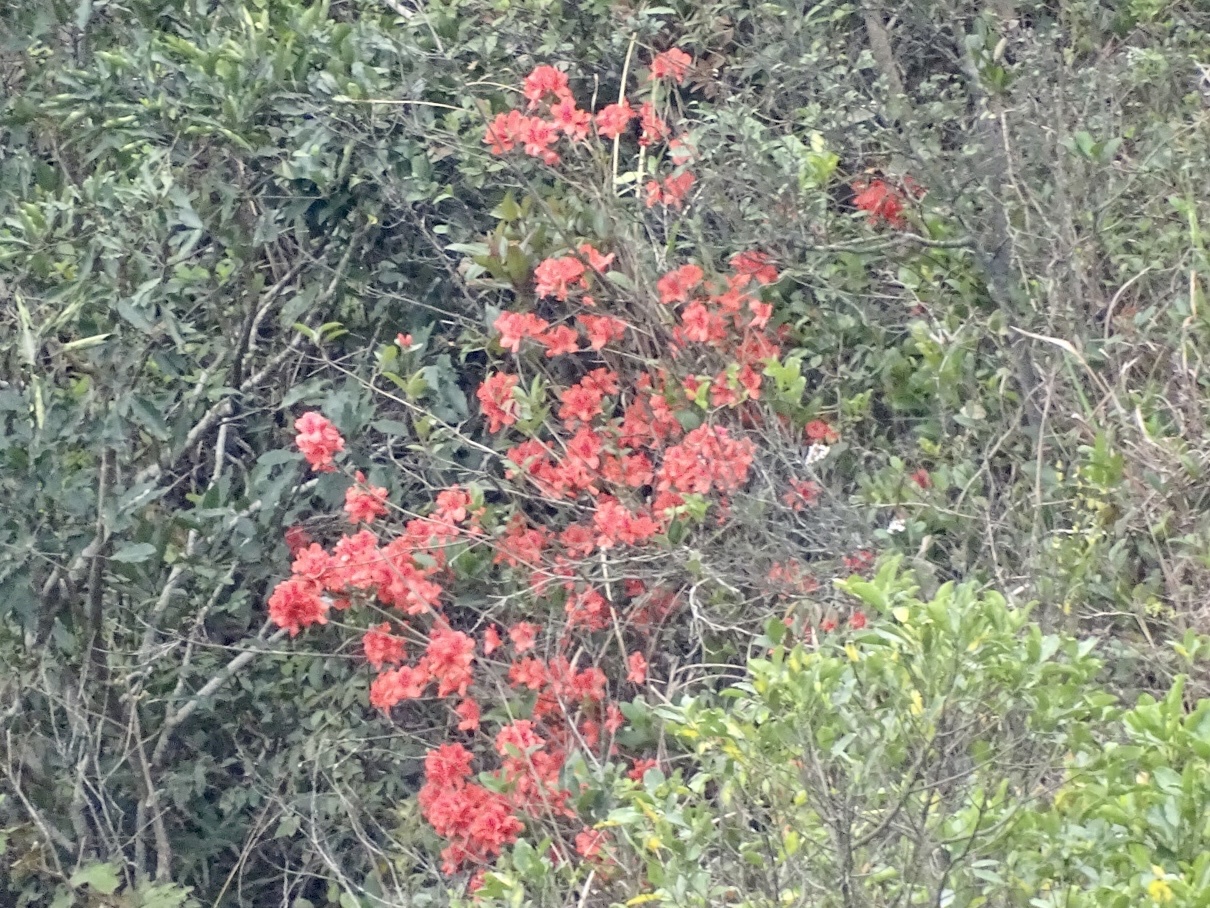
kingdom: Plantae
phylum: Tracheophyta
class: Magnoliopsida
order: Ericales
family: Ericaceae
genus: Rhododendron
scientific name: Rhododendron simsii
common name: Rhododendron
